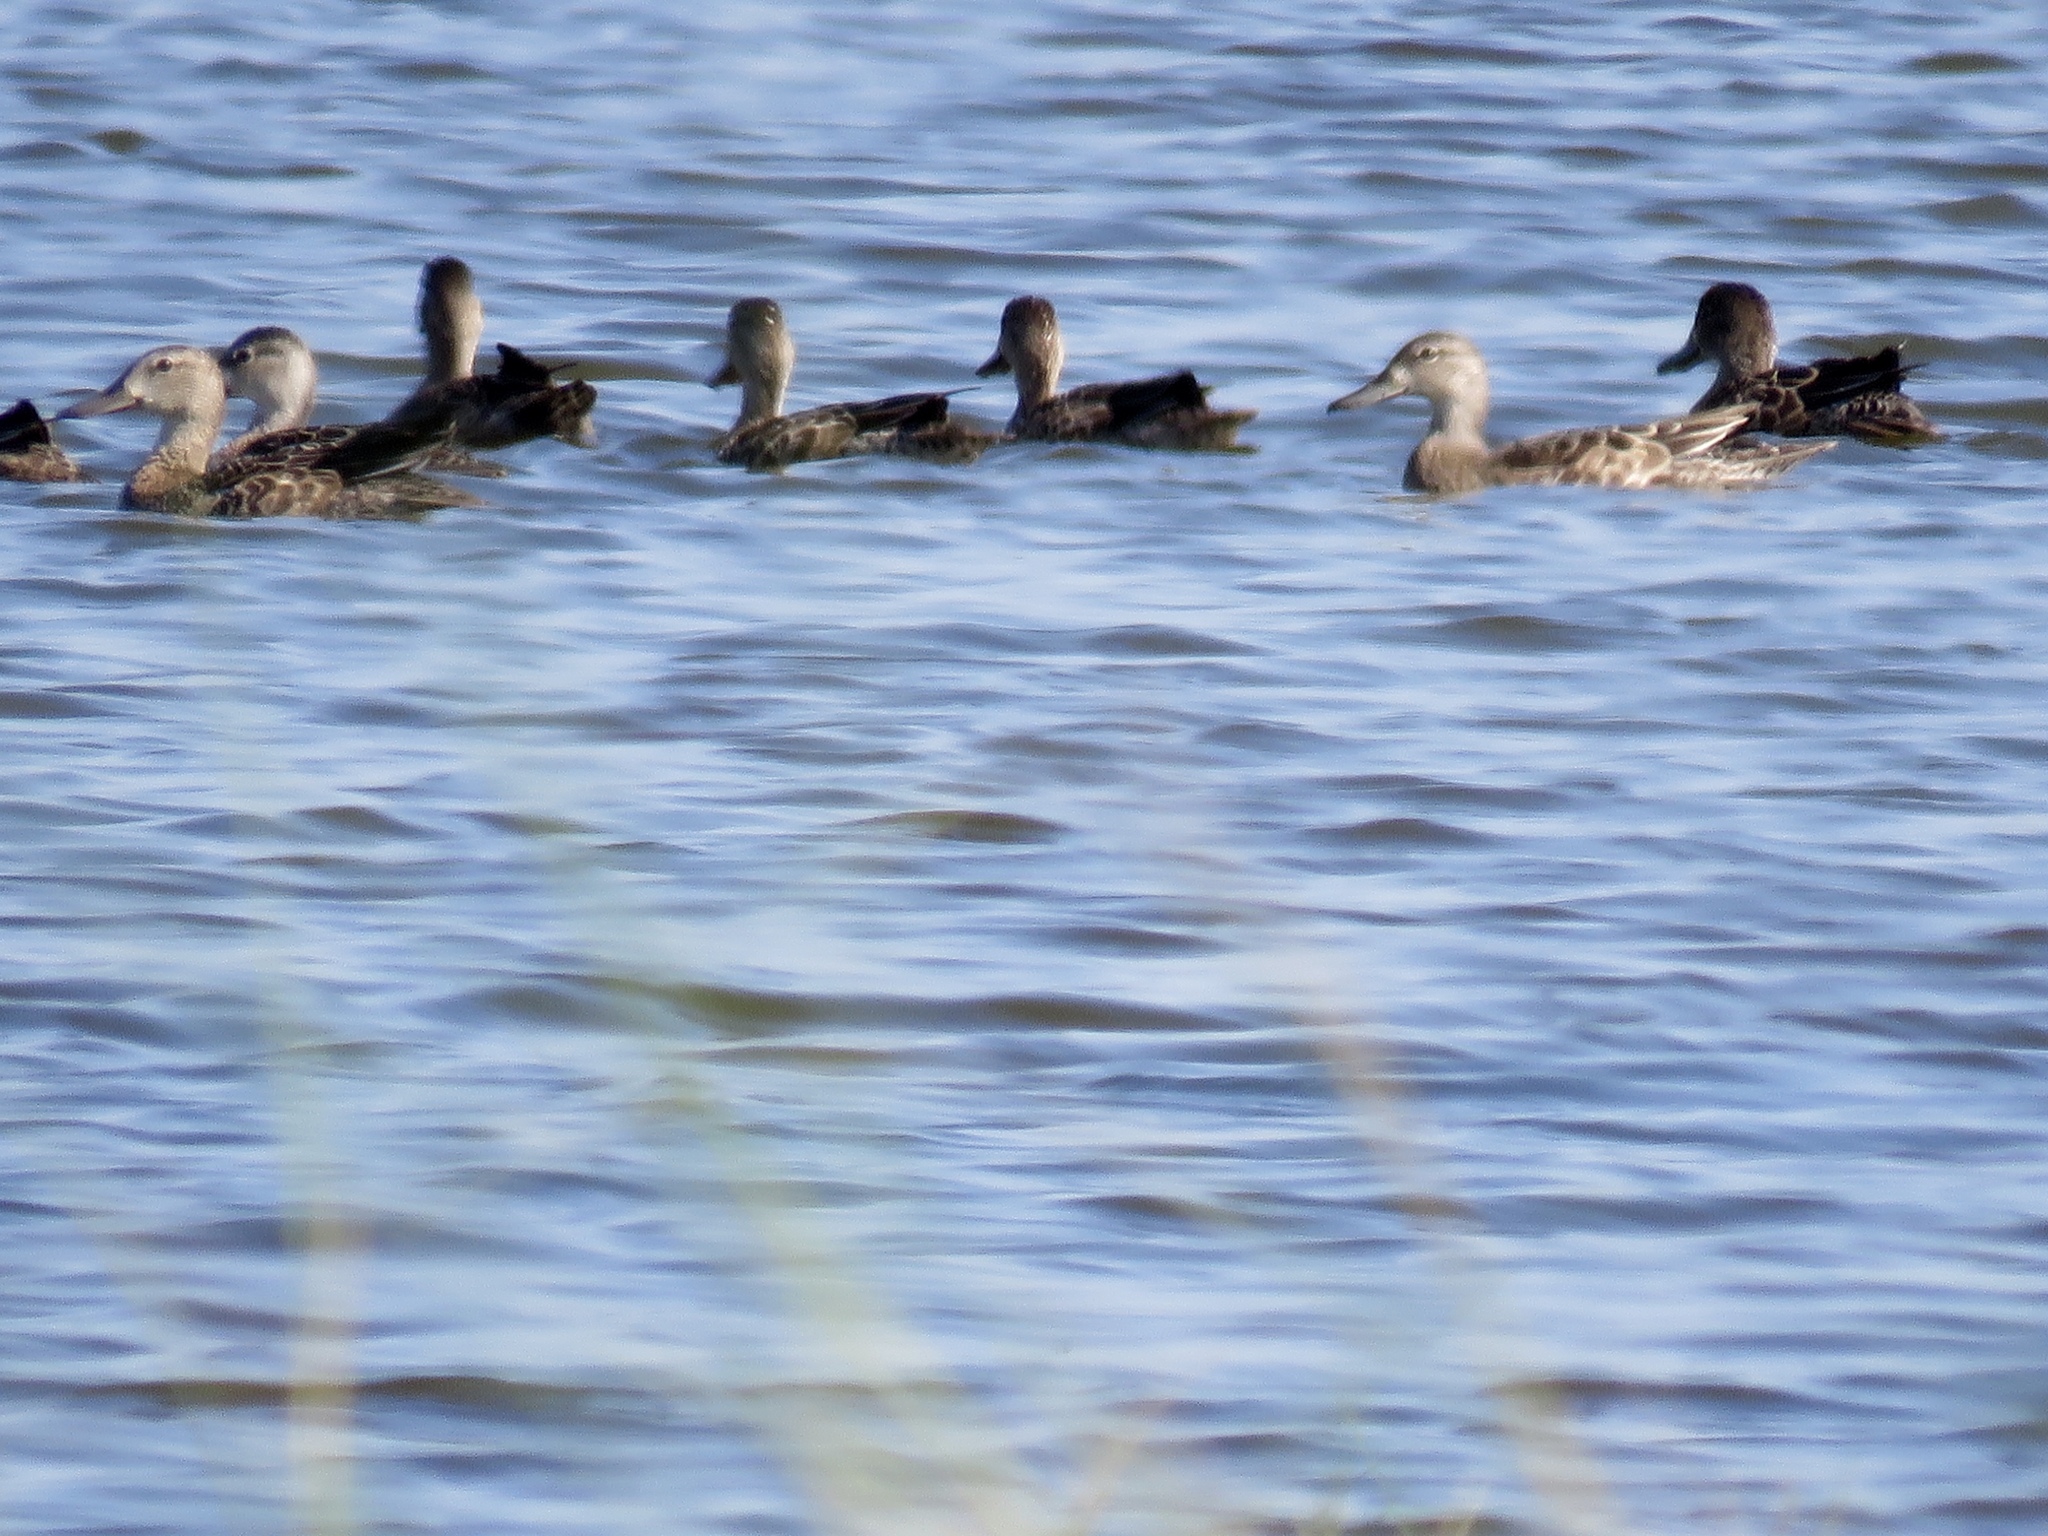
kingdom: Animalia
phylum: Chordata
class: Aves
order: Anseriformes
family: Anatidae
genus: Spatula
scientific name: Spatula discors
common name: Blue-winged teal
